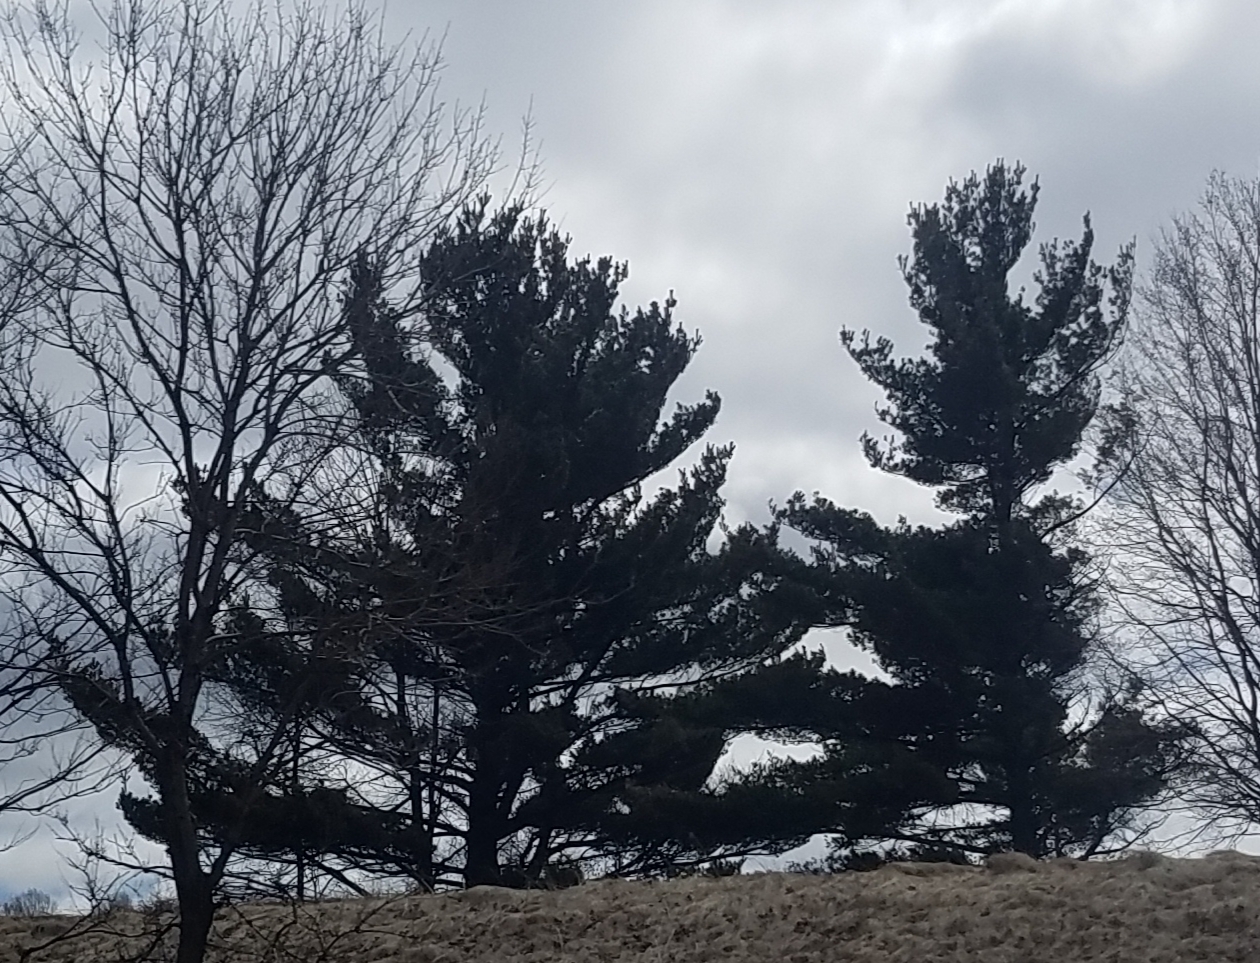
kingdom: Plantae
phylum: Tracheophyta
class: Pinopsida
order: Pinales
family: Pinaceae
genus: Pinus
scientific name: Pinus strobus
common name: Weymouth pine
